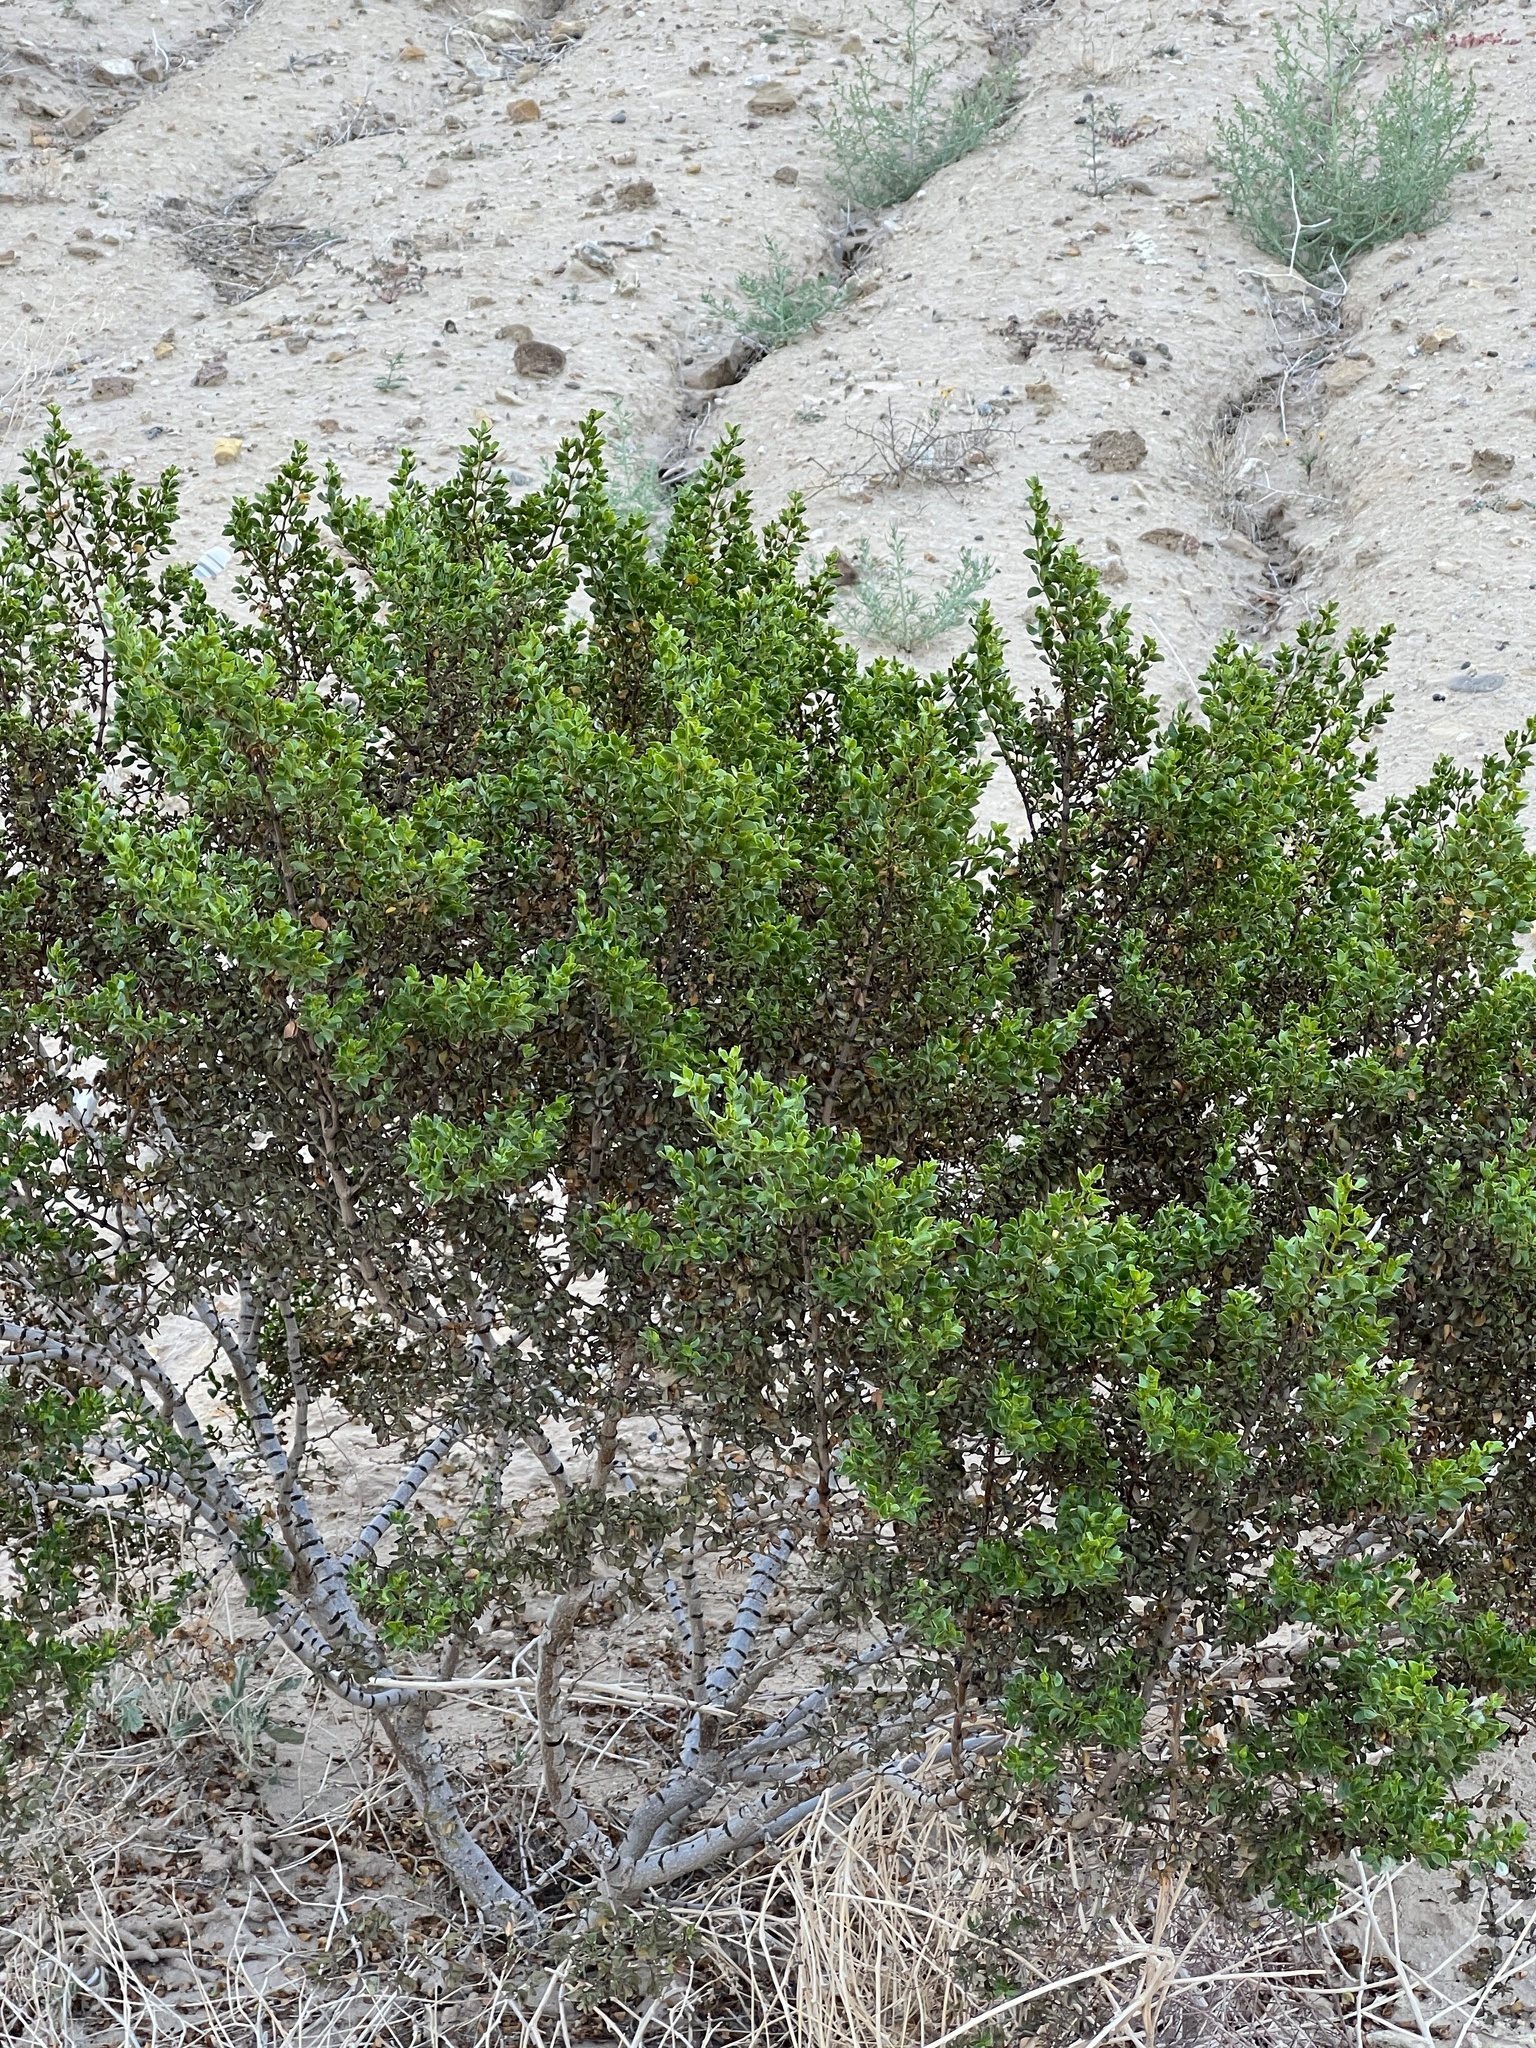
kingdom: Plantae
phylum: Tracheophyta
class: Magnoliopsida
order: Zygophyllales
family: Zygophyllaceae
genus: Larrea
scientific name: Larrea tridentata
